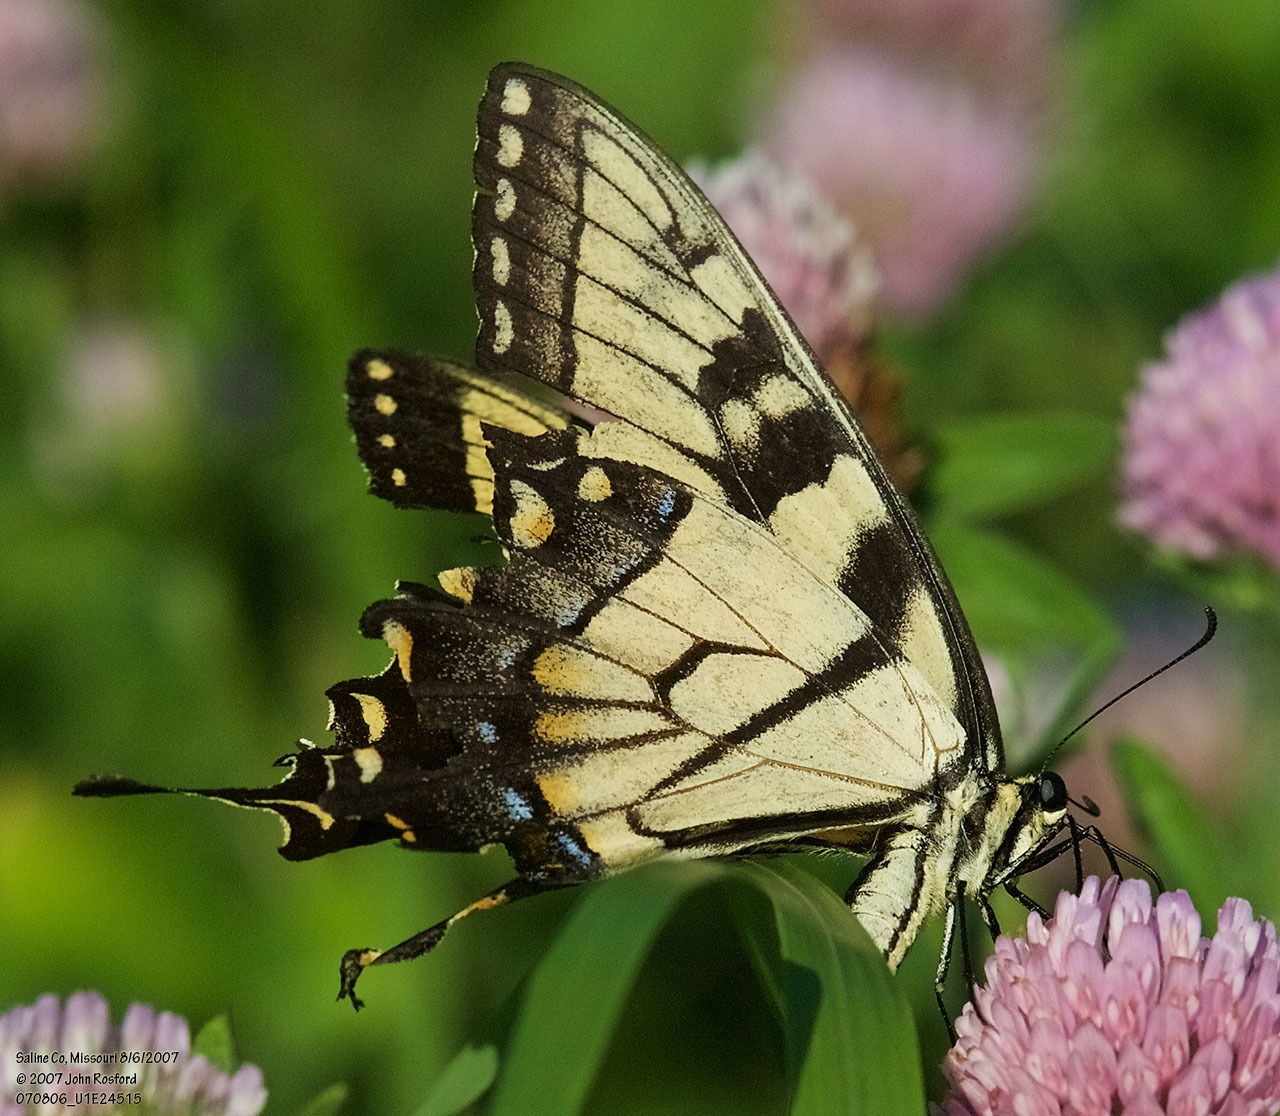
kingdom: Animalia
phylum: Arthropoda
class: Insecta
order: Lepidoptera
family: Papilionidae
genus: Papilio
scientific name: Papilio glaucus
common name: Tiger swallowtail
